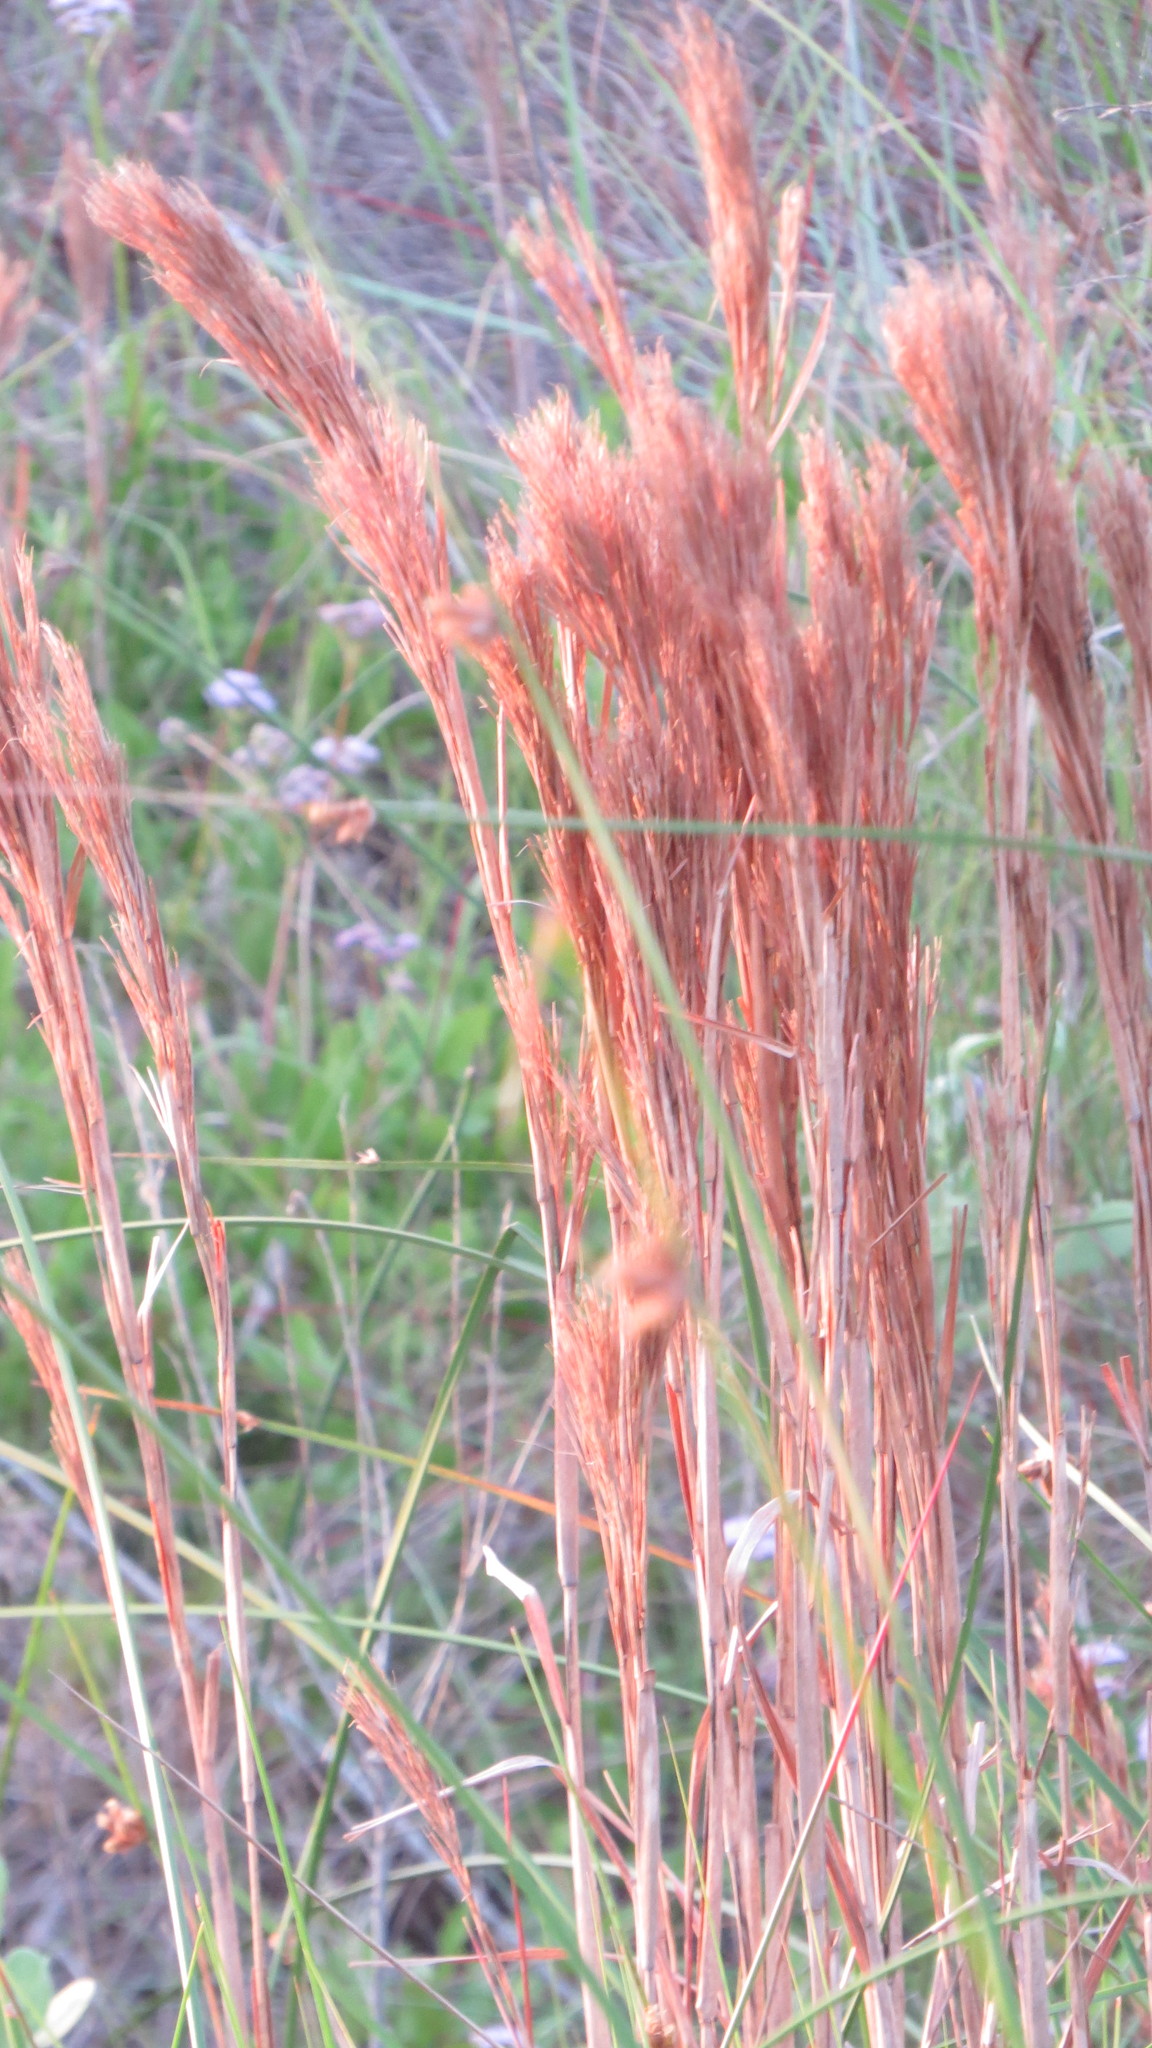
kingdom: Plantae
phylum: Tracheophyta
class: Liliopsida
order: Poales
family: Poaceae
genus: Andropogon
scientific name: Andropogon tenuispatheus
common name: Bushy bluestem
